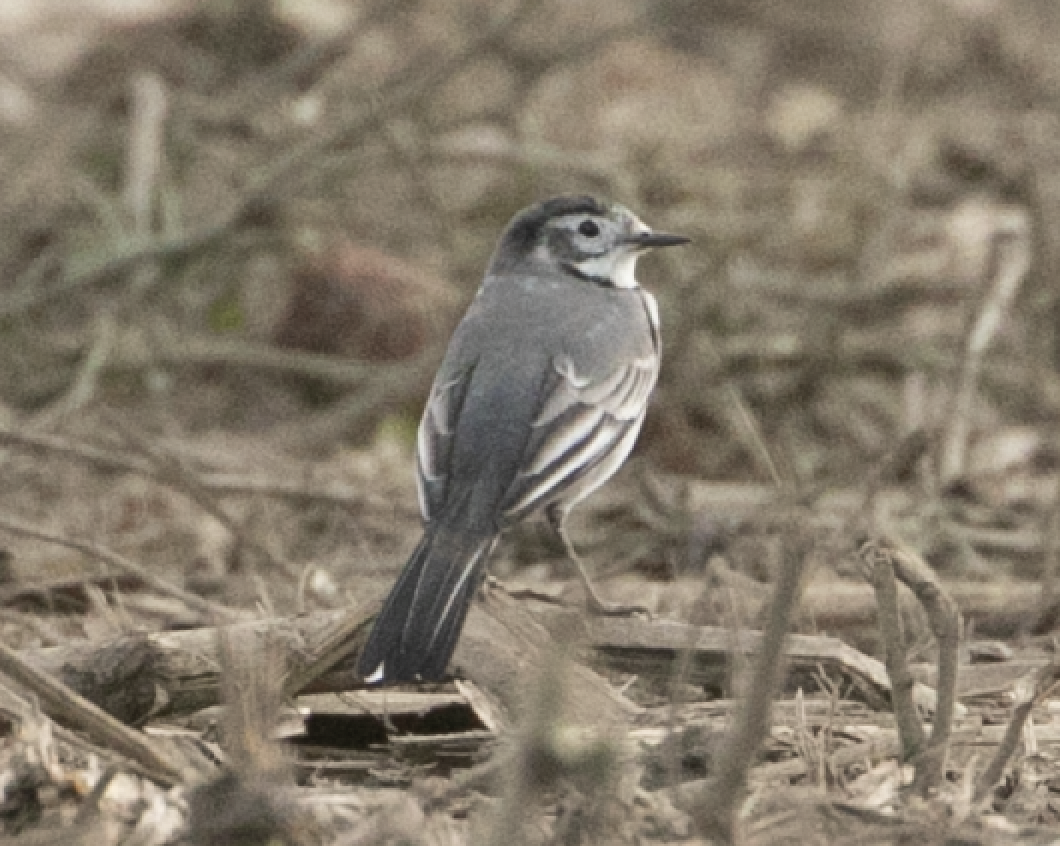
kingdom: Animalia
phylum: Chordata
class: Aves
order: Passeriformes
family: Motacillidae
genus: Motacilla
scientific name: Motacilla alba
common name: White wagtail
